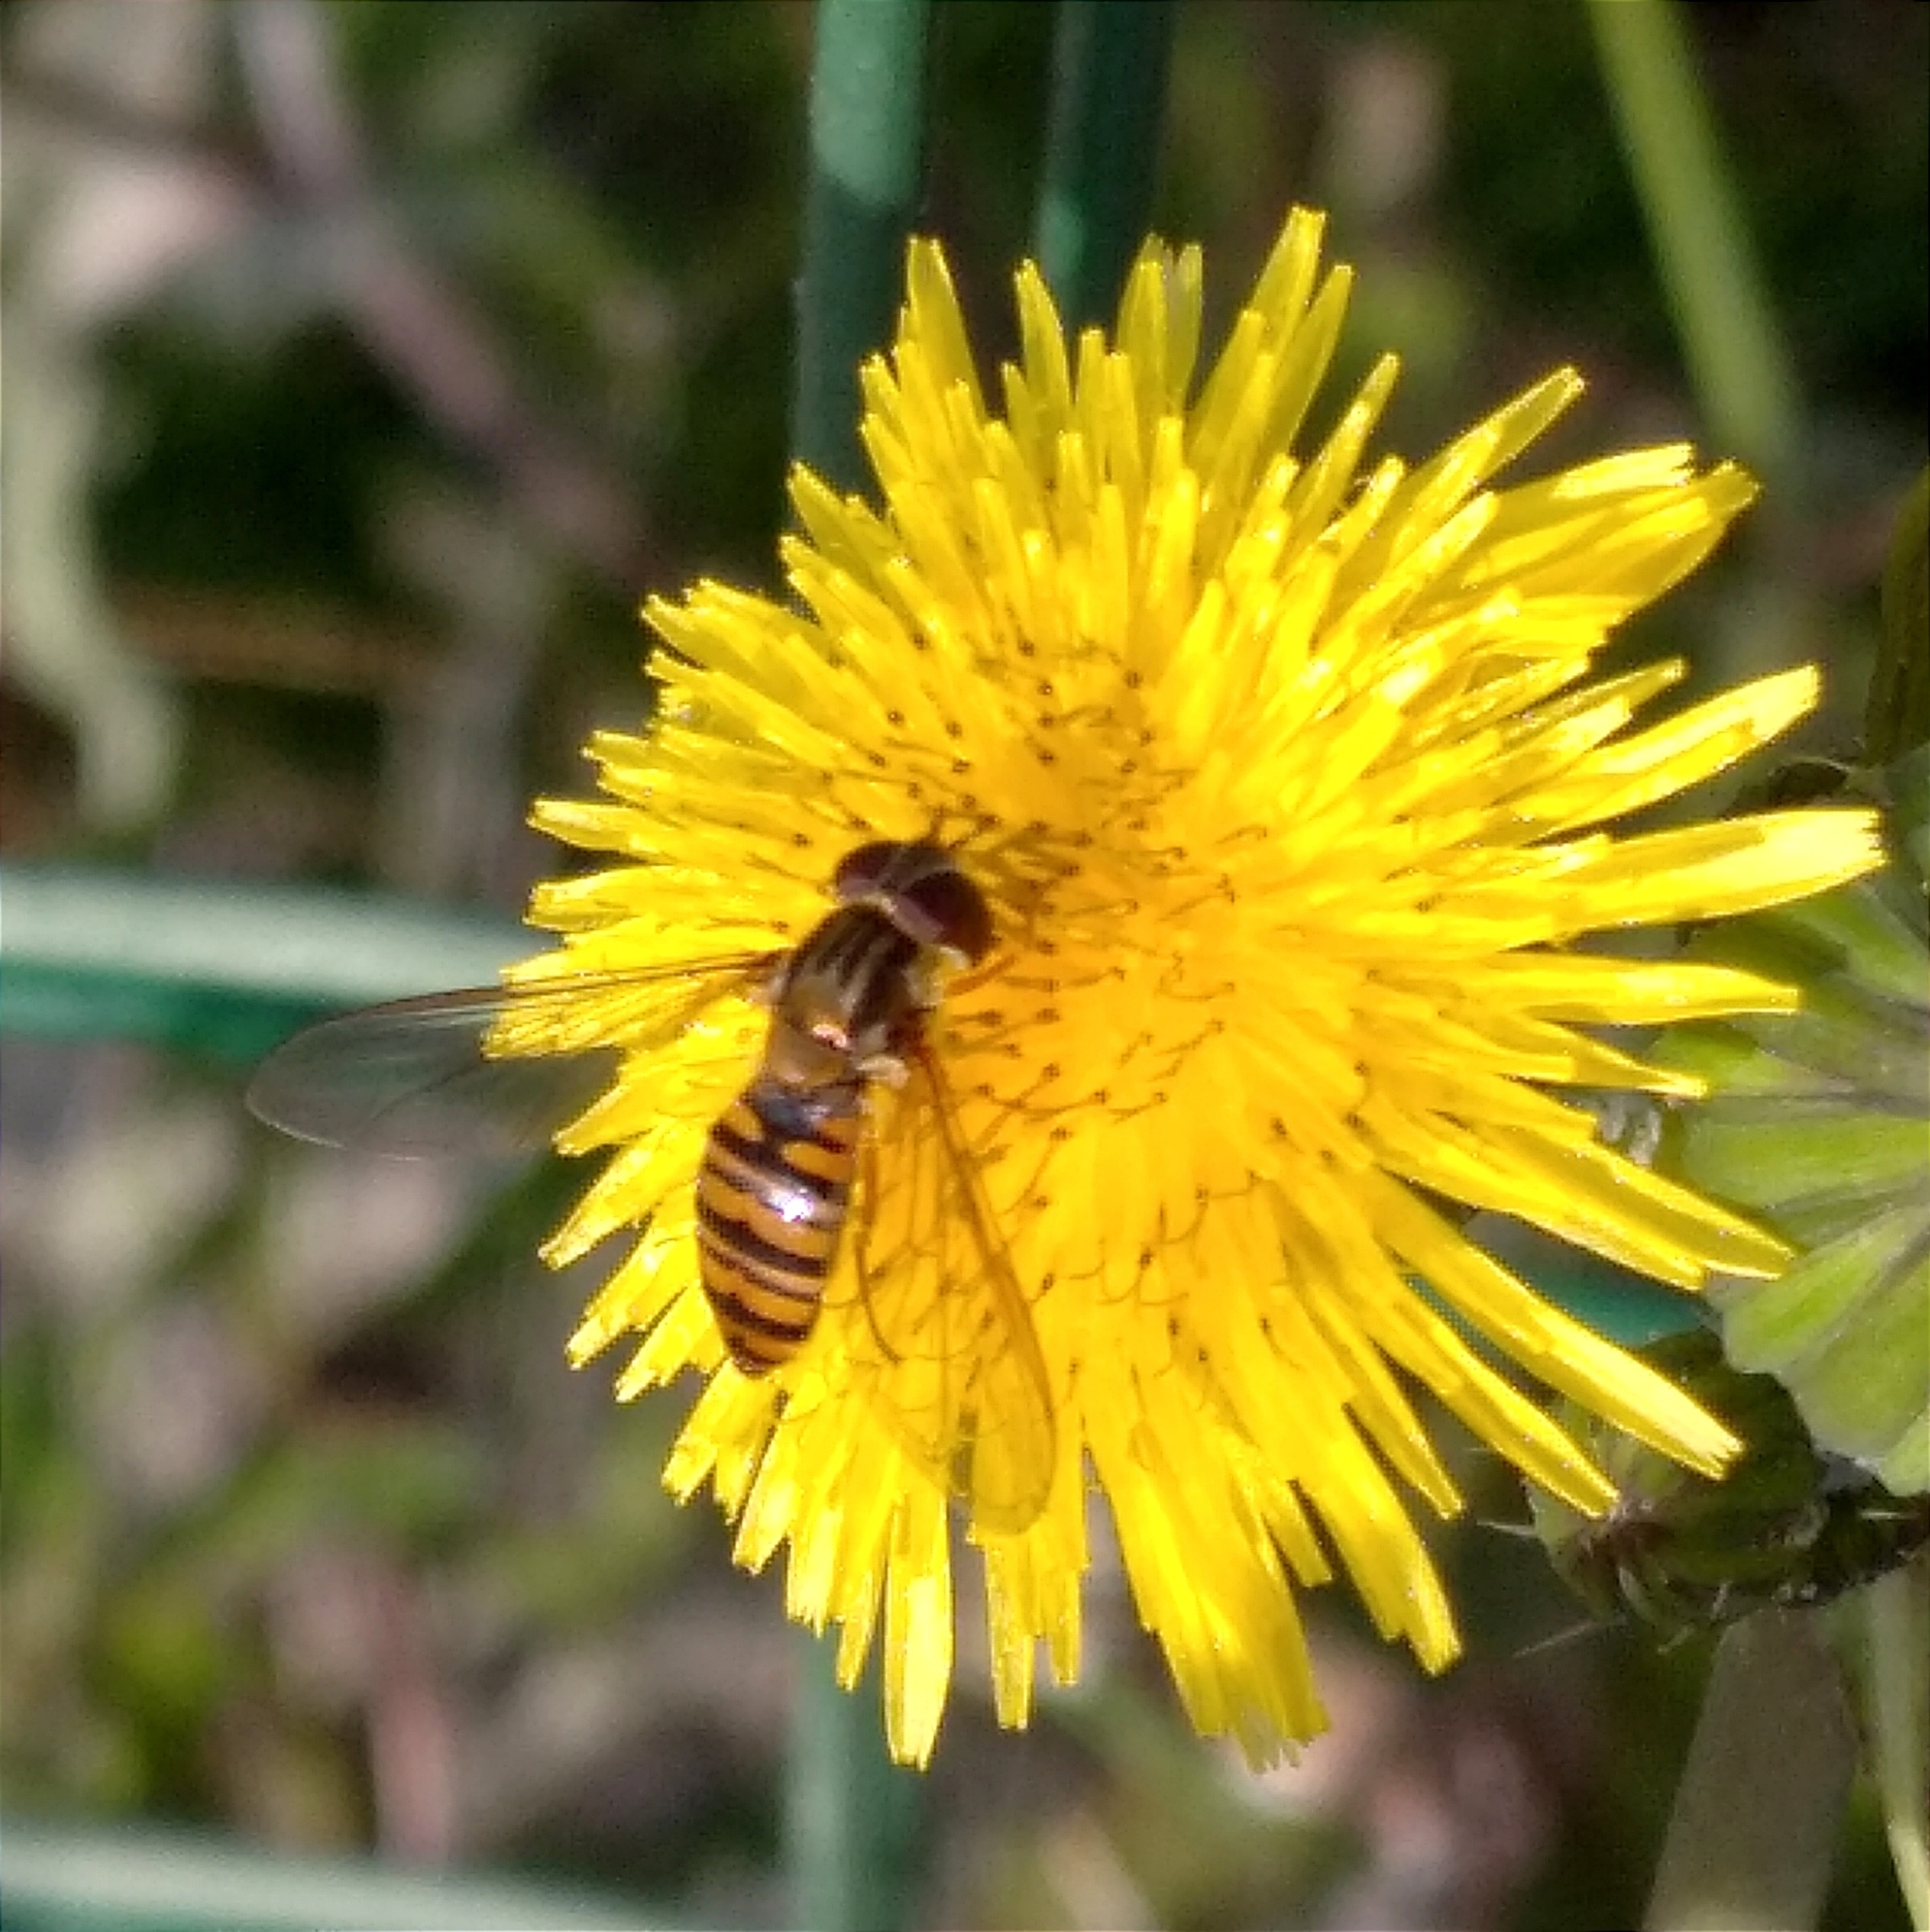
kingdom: Animalia
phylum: Arthropoda
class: Insecta
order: Diptera
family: Syrphidae
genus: Episyrphus
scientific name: Episyrphus balteatus
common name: Marmalade hoverfly
